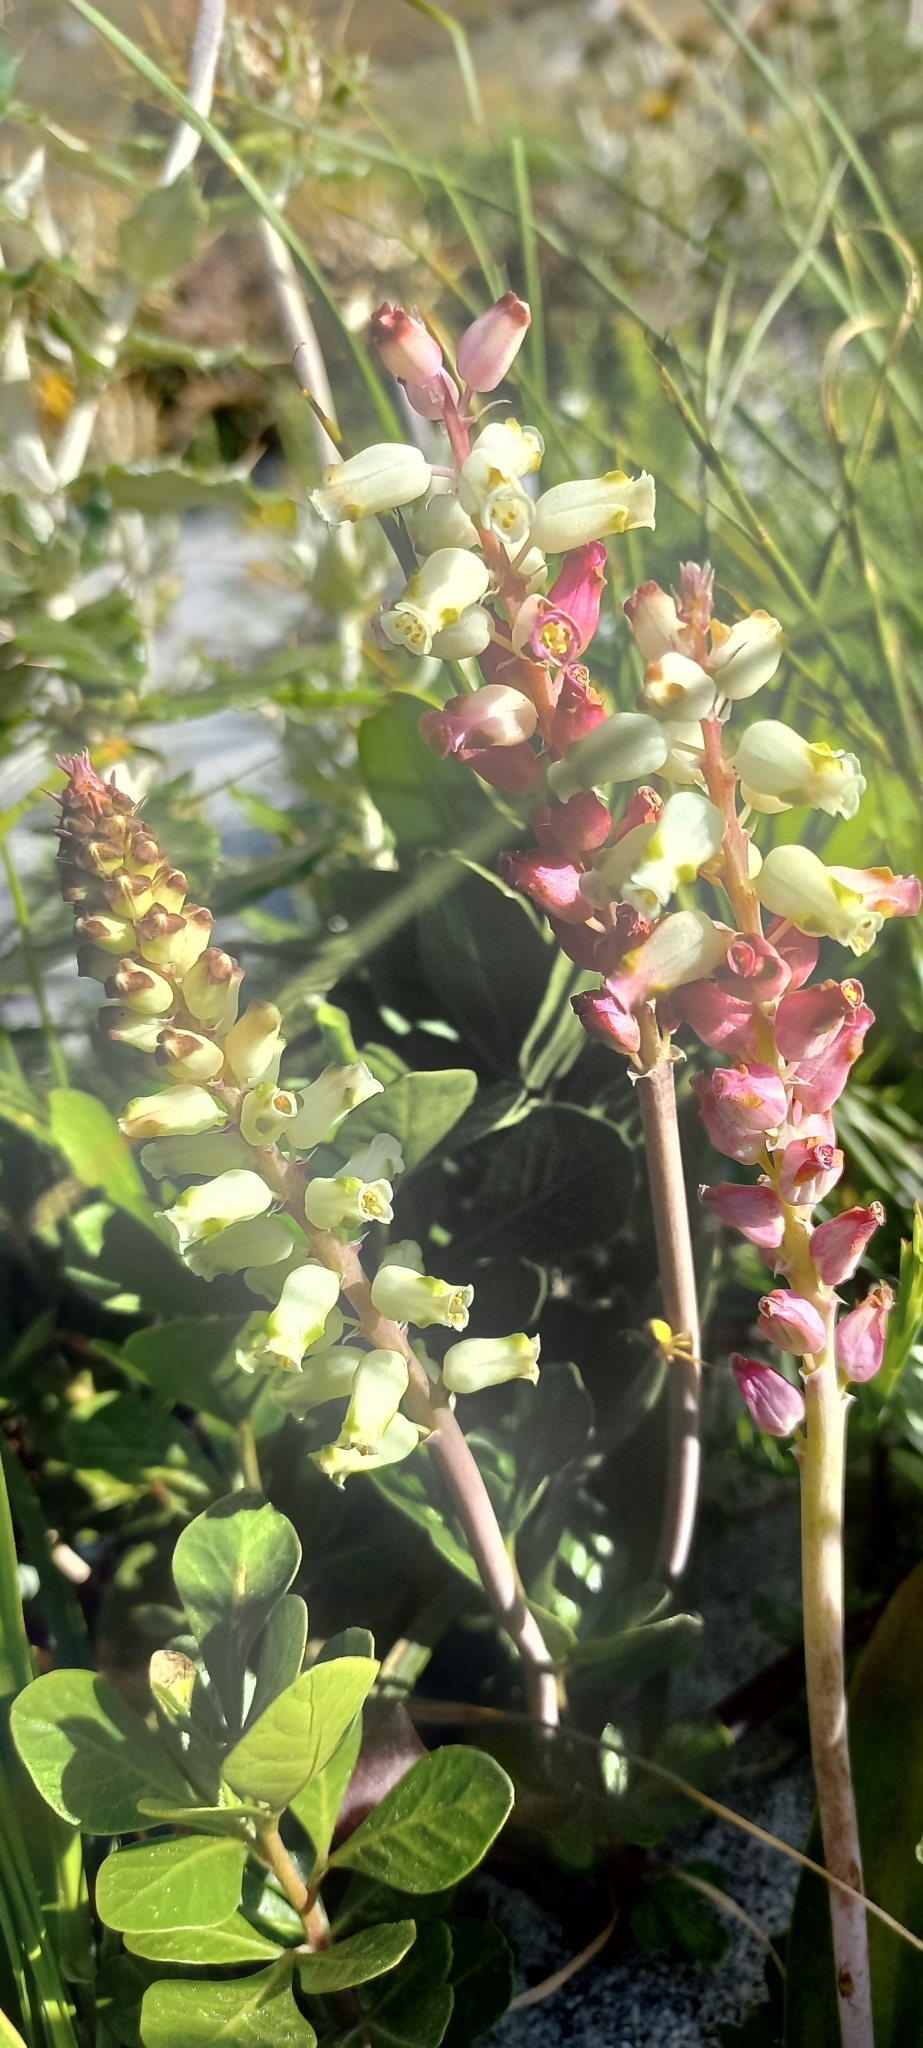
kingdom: Plantae
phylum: Tracheophyta
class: Liliopsida
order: Asparagales
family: Asparagaceae
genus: Lachenalia
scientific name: Lachenalia peersii
